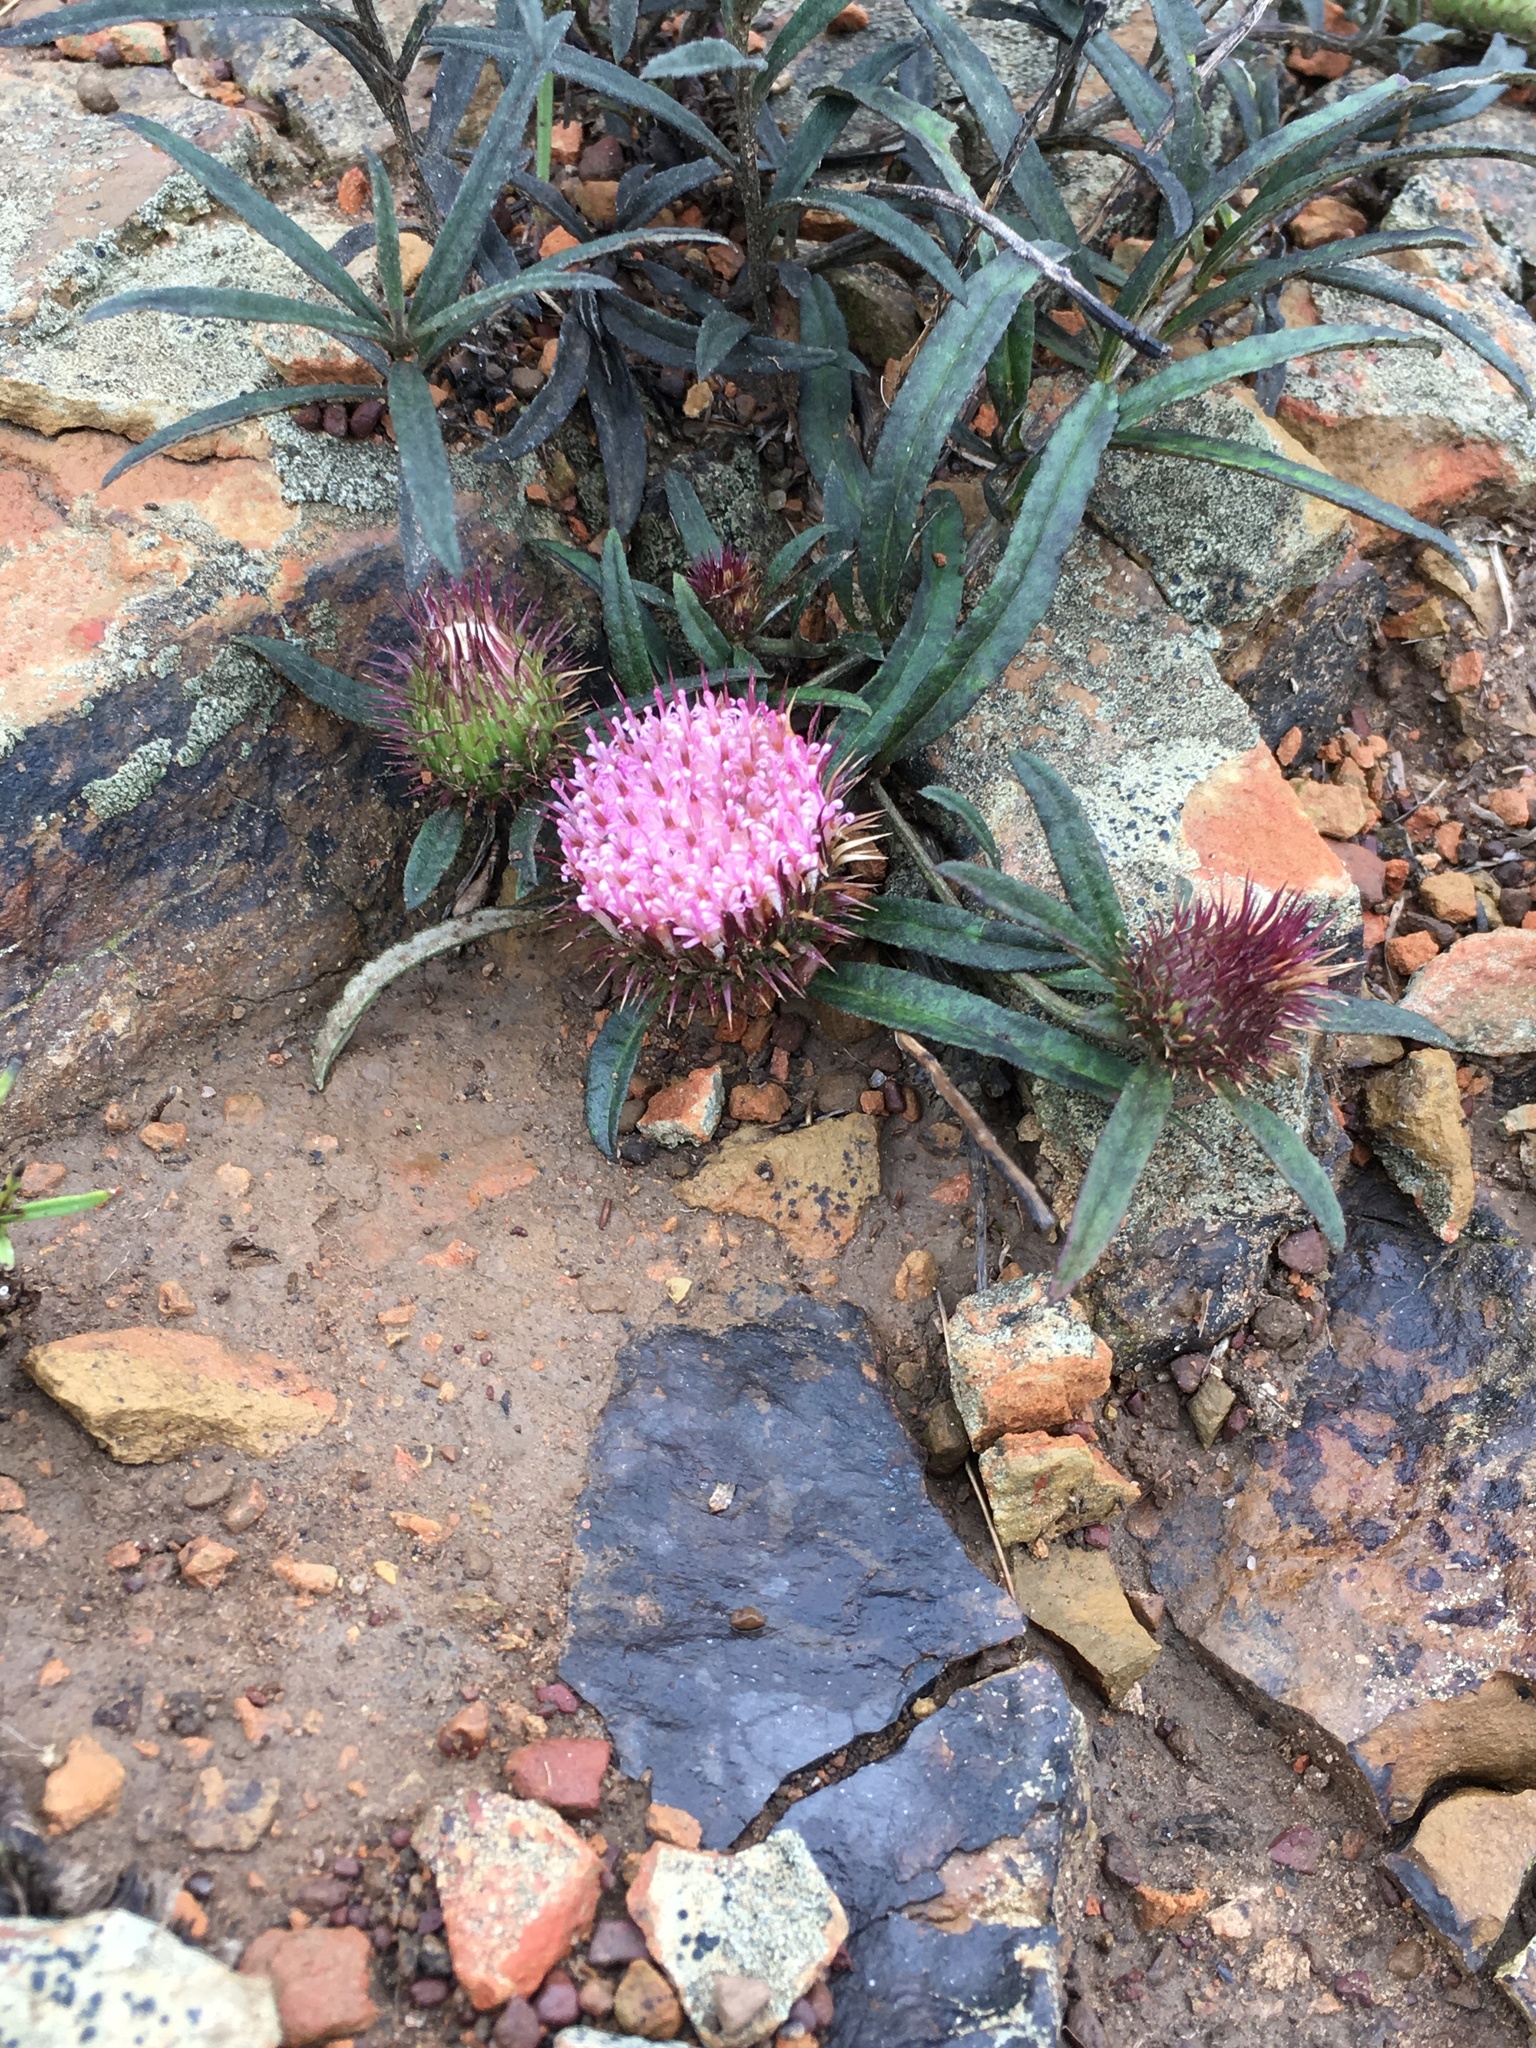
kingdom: Plantae
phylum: Tracheophyta
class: Magnoliopsida
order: Asterales
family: Asteraceae
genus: Dicoma
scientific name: Dicoma anomala
